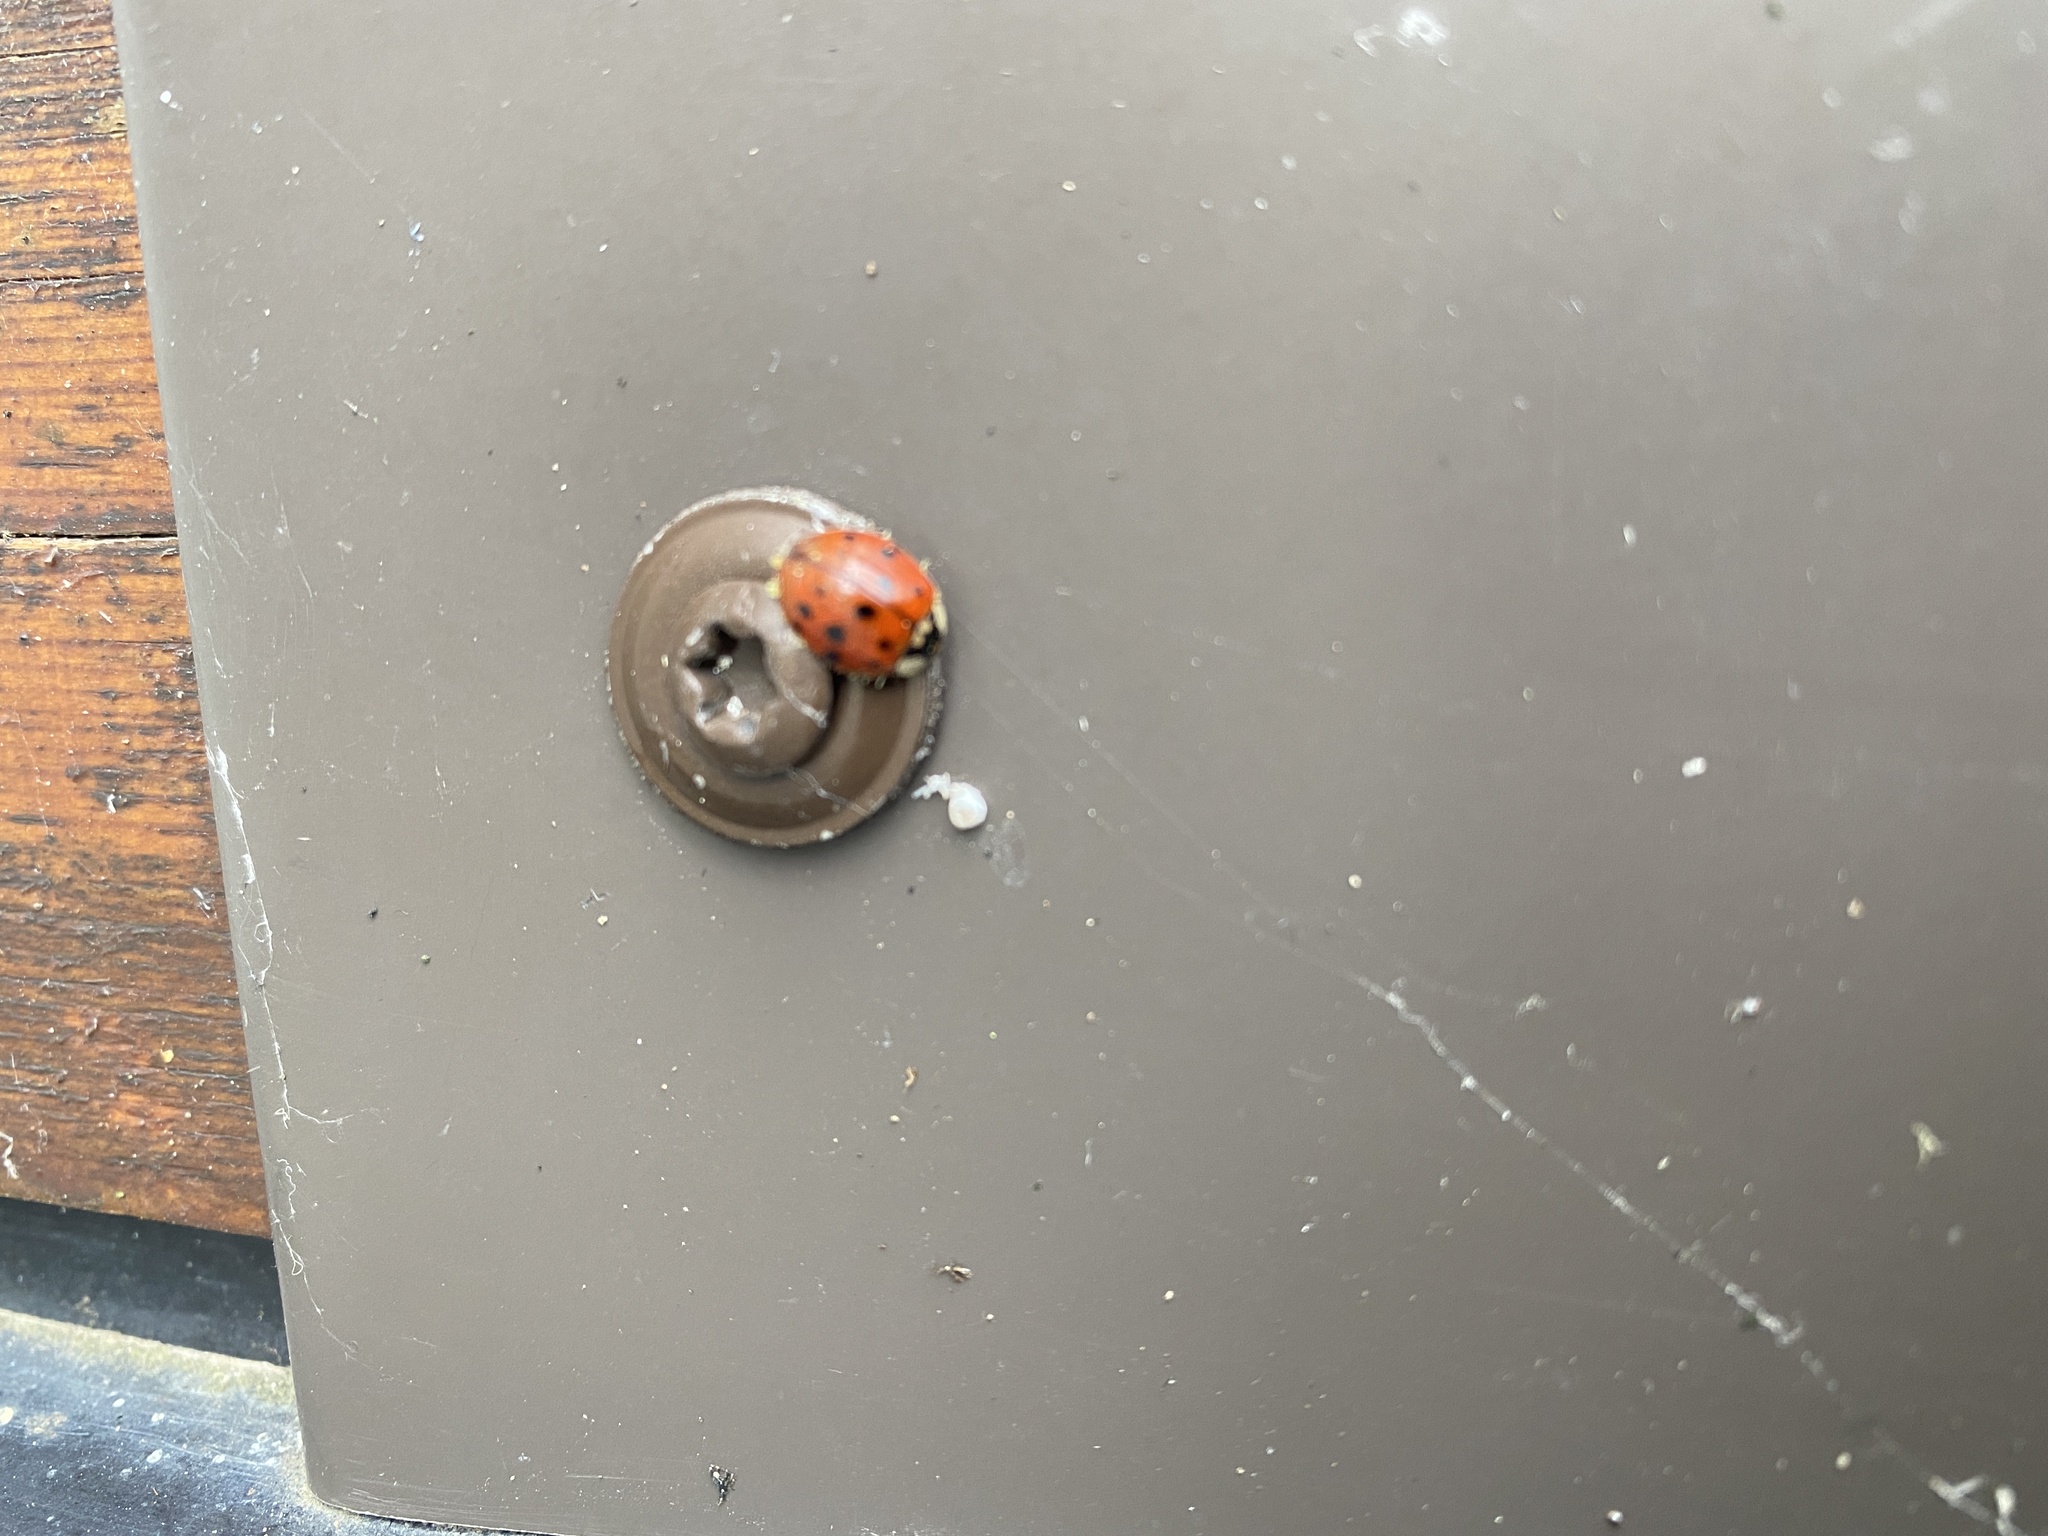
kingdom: Animalia
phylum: Arthropoda
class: Insecta
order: Coleoptera
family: Coccinellidae
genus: Harmonia
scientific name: Harmonia axyridis
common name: Harlequin ladybird
